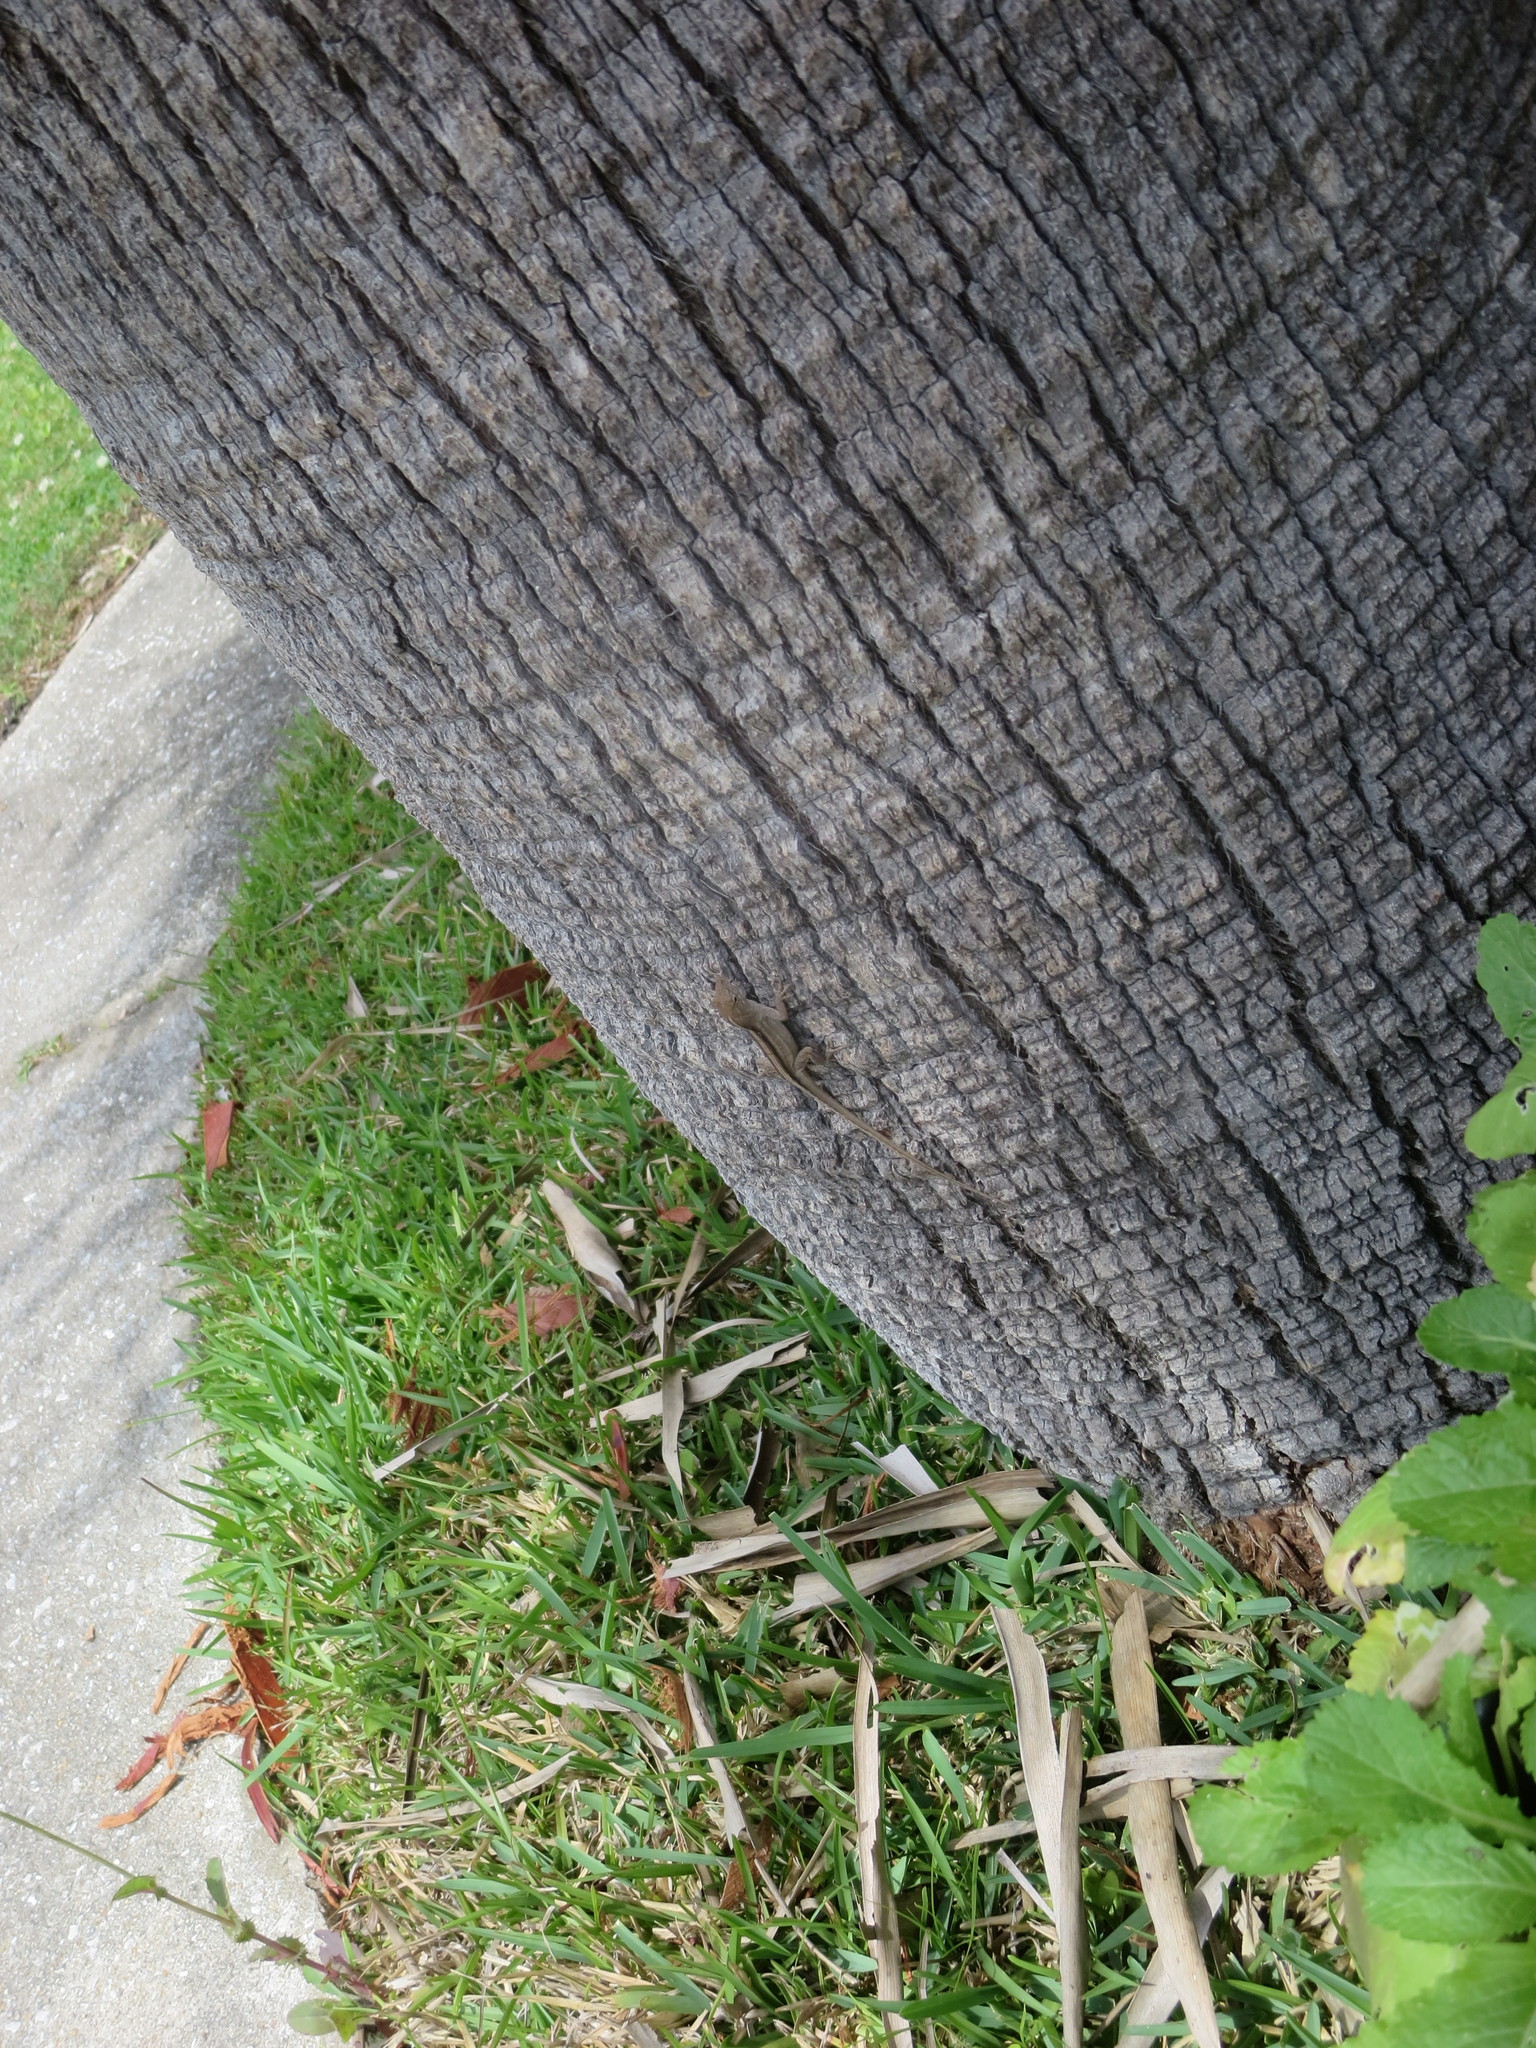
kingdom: Animalia
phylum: Chordata
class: Squamata
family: Dactyloidae
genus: Anolis
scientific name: Anolis sagrei
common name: Brown anole
